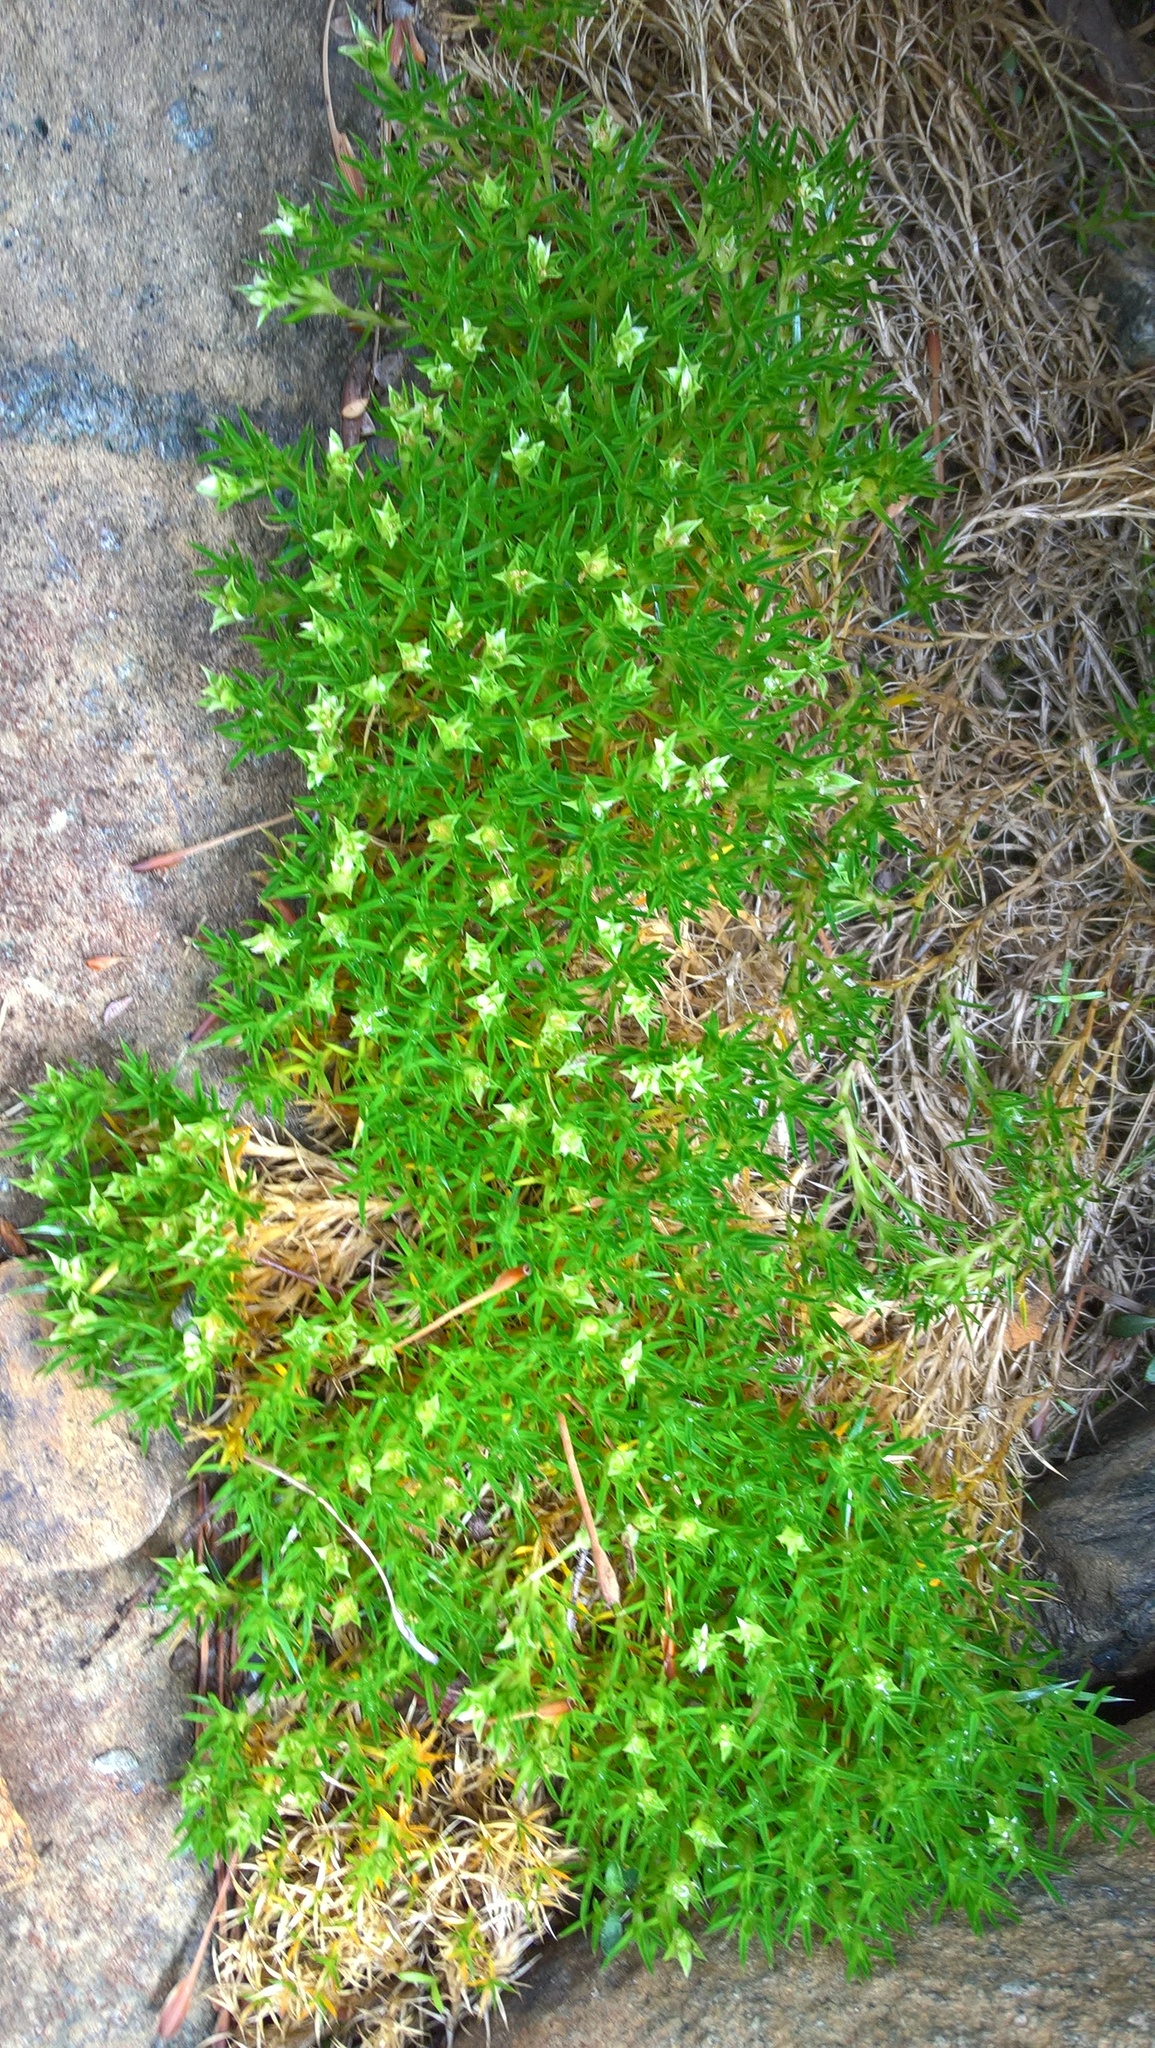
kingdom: Plantae
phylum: Tracheophyta
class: Magnoliopsida
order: Caryophyllales
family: Caryophyllaceae
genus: Sagina
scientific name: Sagina procumbens
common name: Procumbent pearlwort
